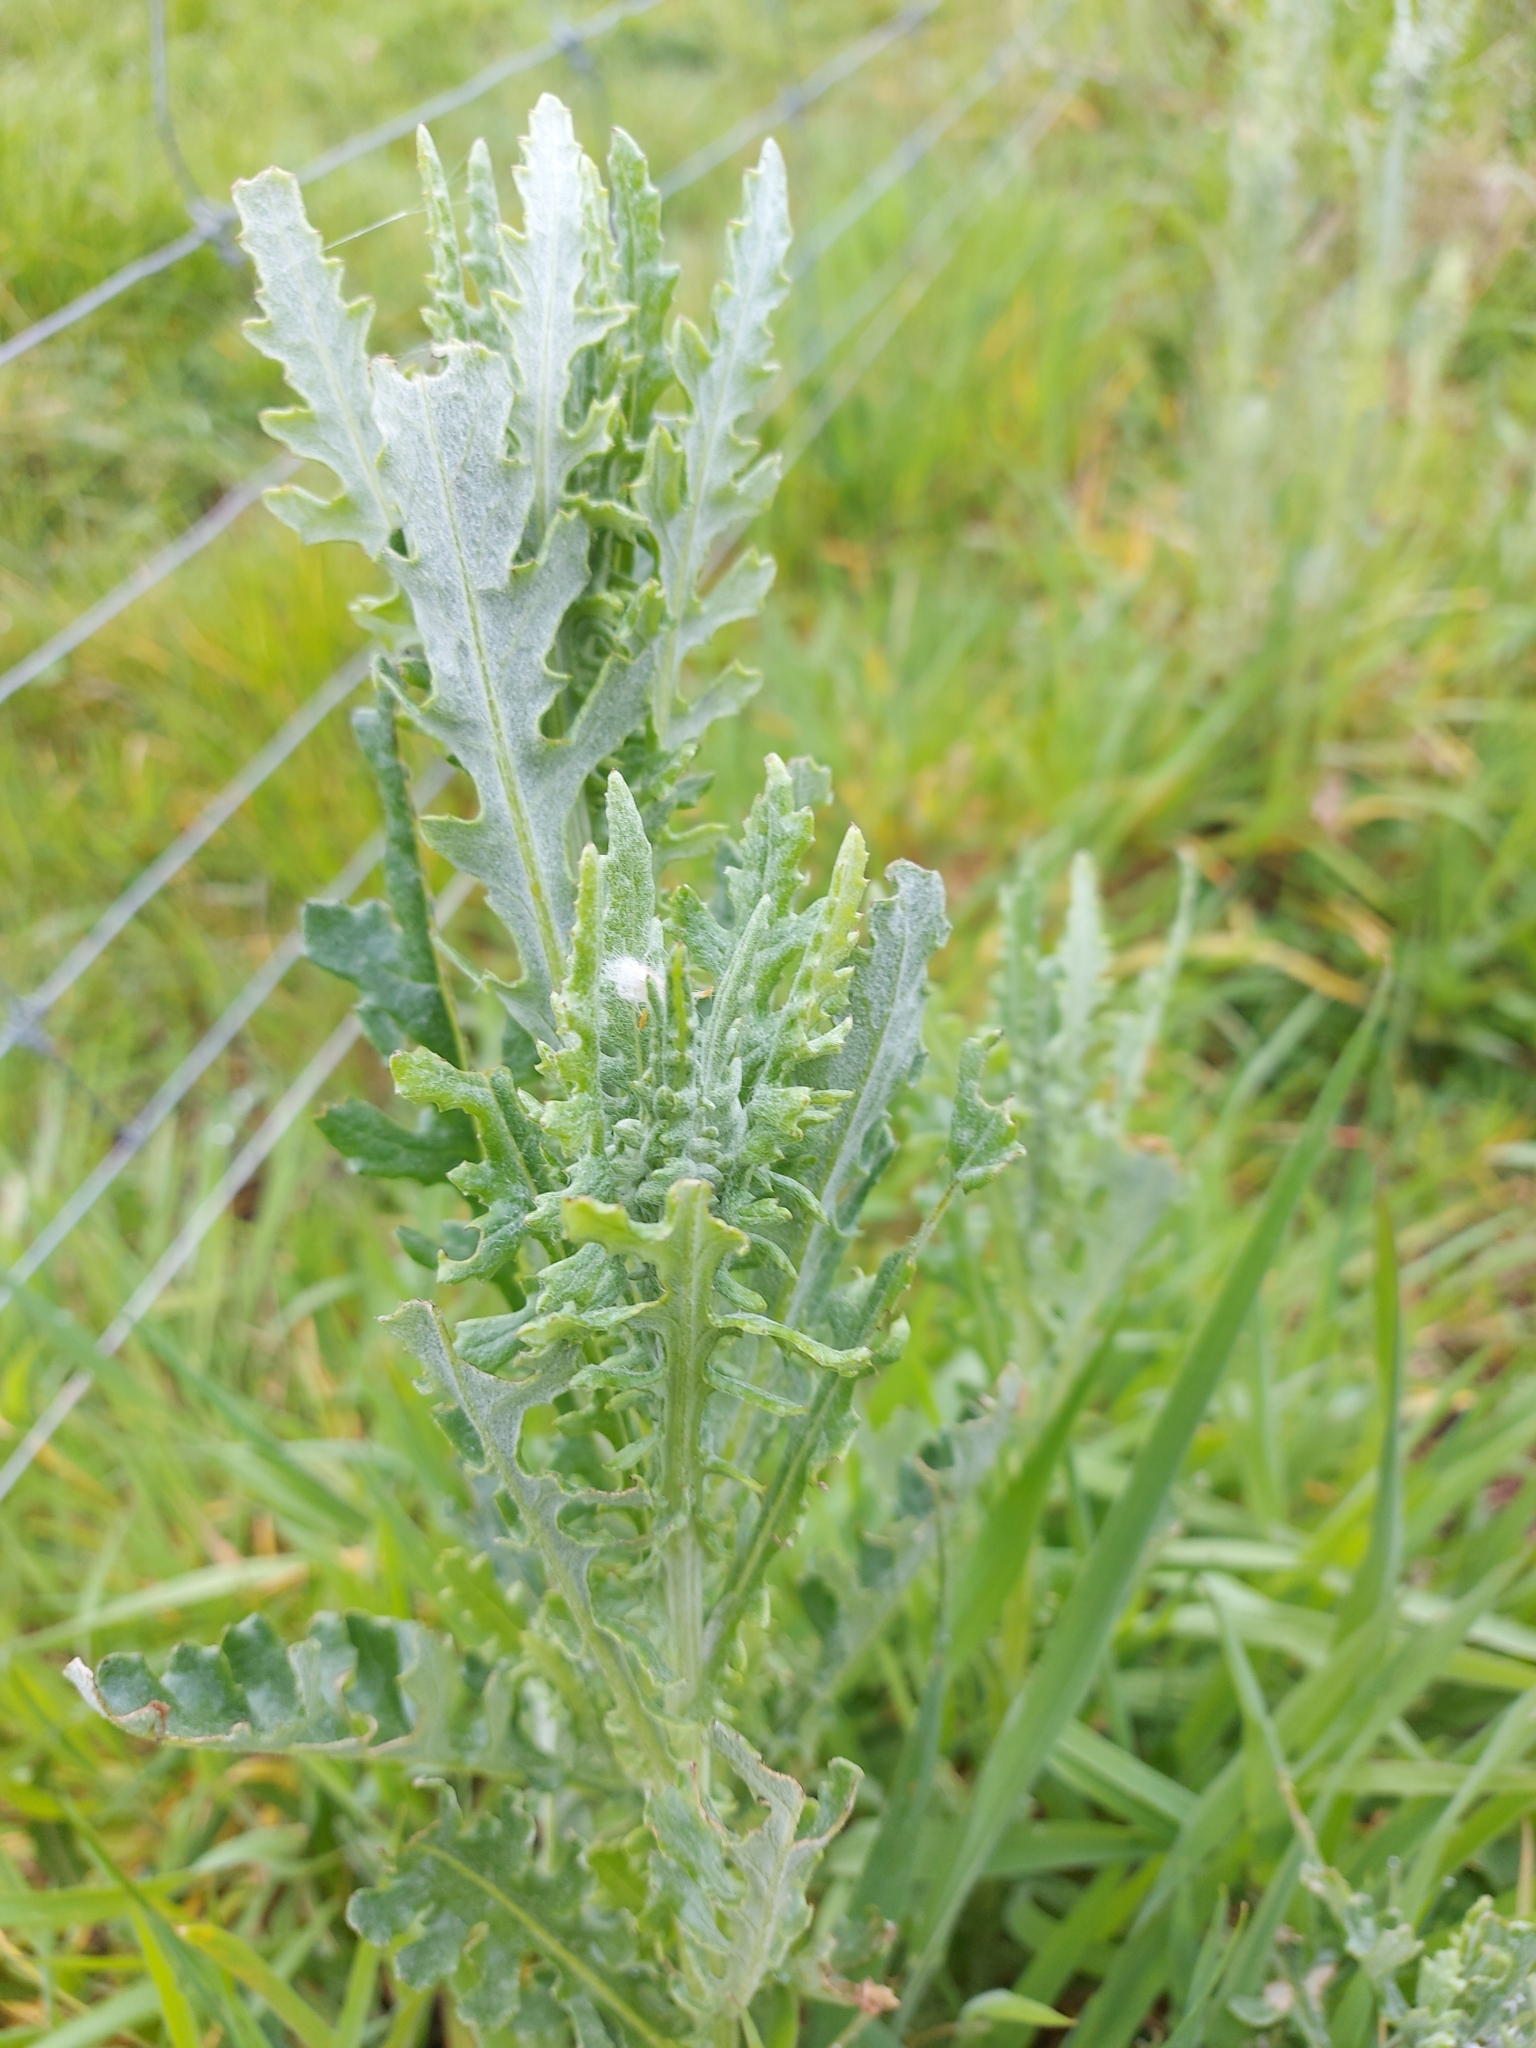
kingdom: Plantae
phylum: Tracheophyta
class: Magnoliopsida
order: Asterales
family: Asteraceae
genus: Senecio
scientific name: Senecio glomeratus
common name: Cutleaf burnweed
